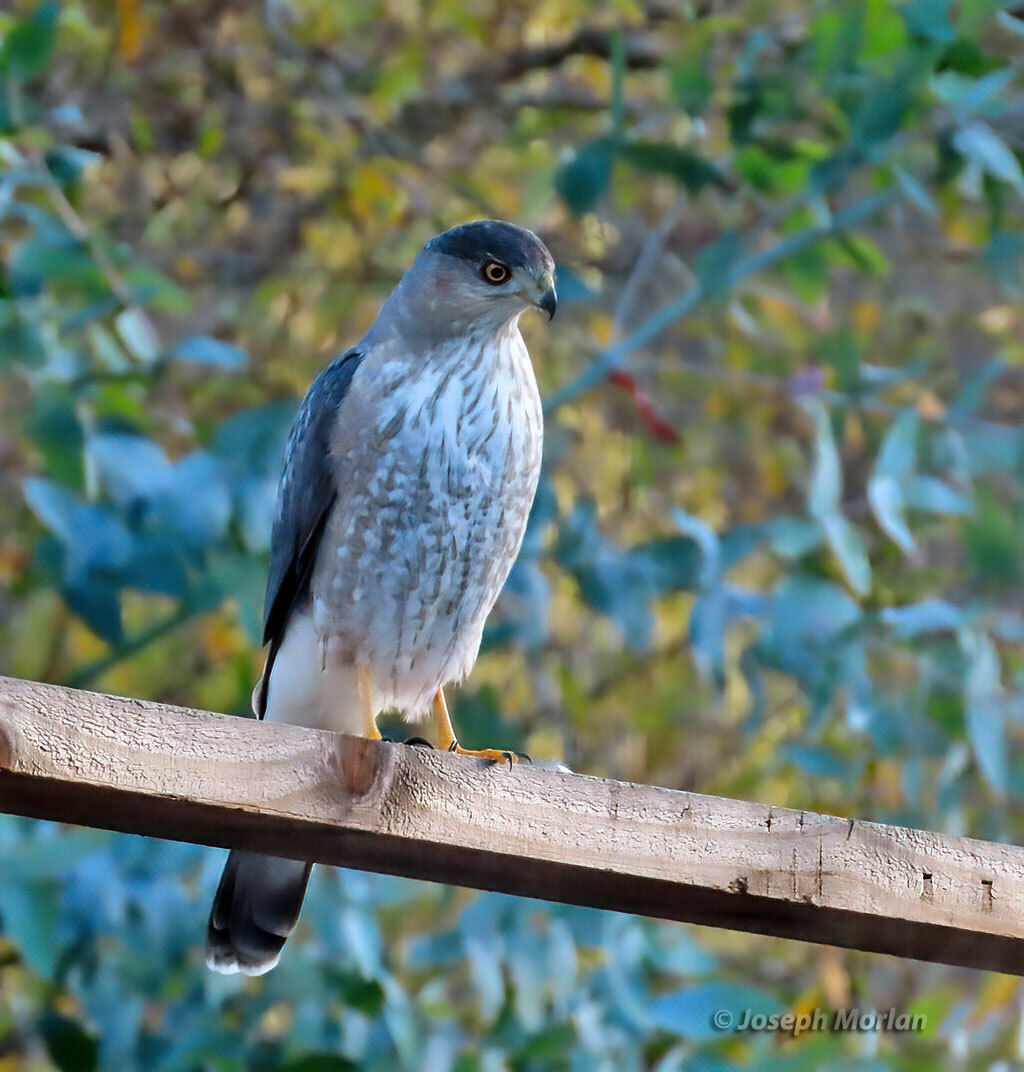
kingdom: Animalia
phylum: Chordata
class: Aves
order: Accipitriformes
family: Accipitridae
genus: Accipiter
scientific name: Accipiter cooperii
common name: Cooper's hawk
